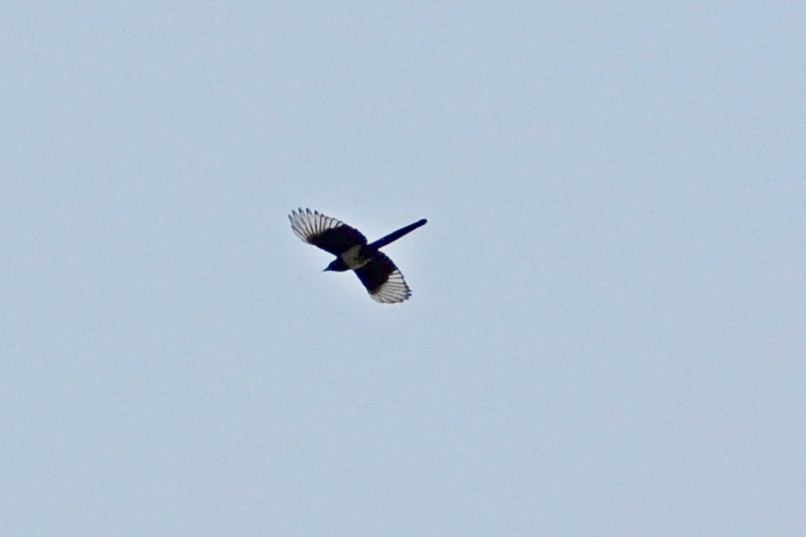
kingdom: Animalia
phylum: Chordata
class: Aves
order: Passeriformes
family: Corvidae
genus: Pica
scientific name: Pica pica
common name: Eurasian magpie
